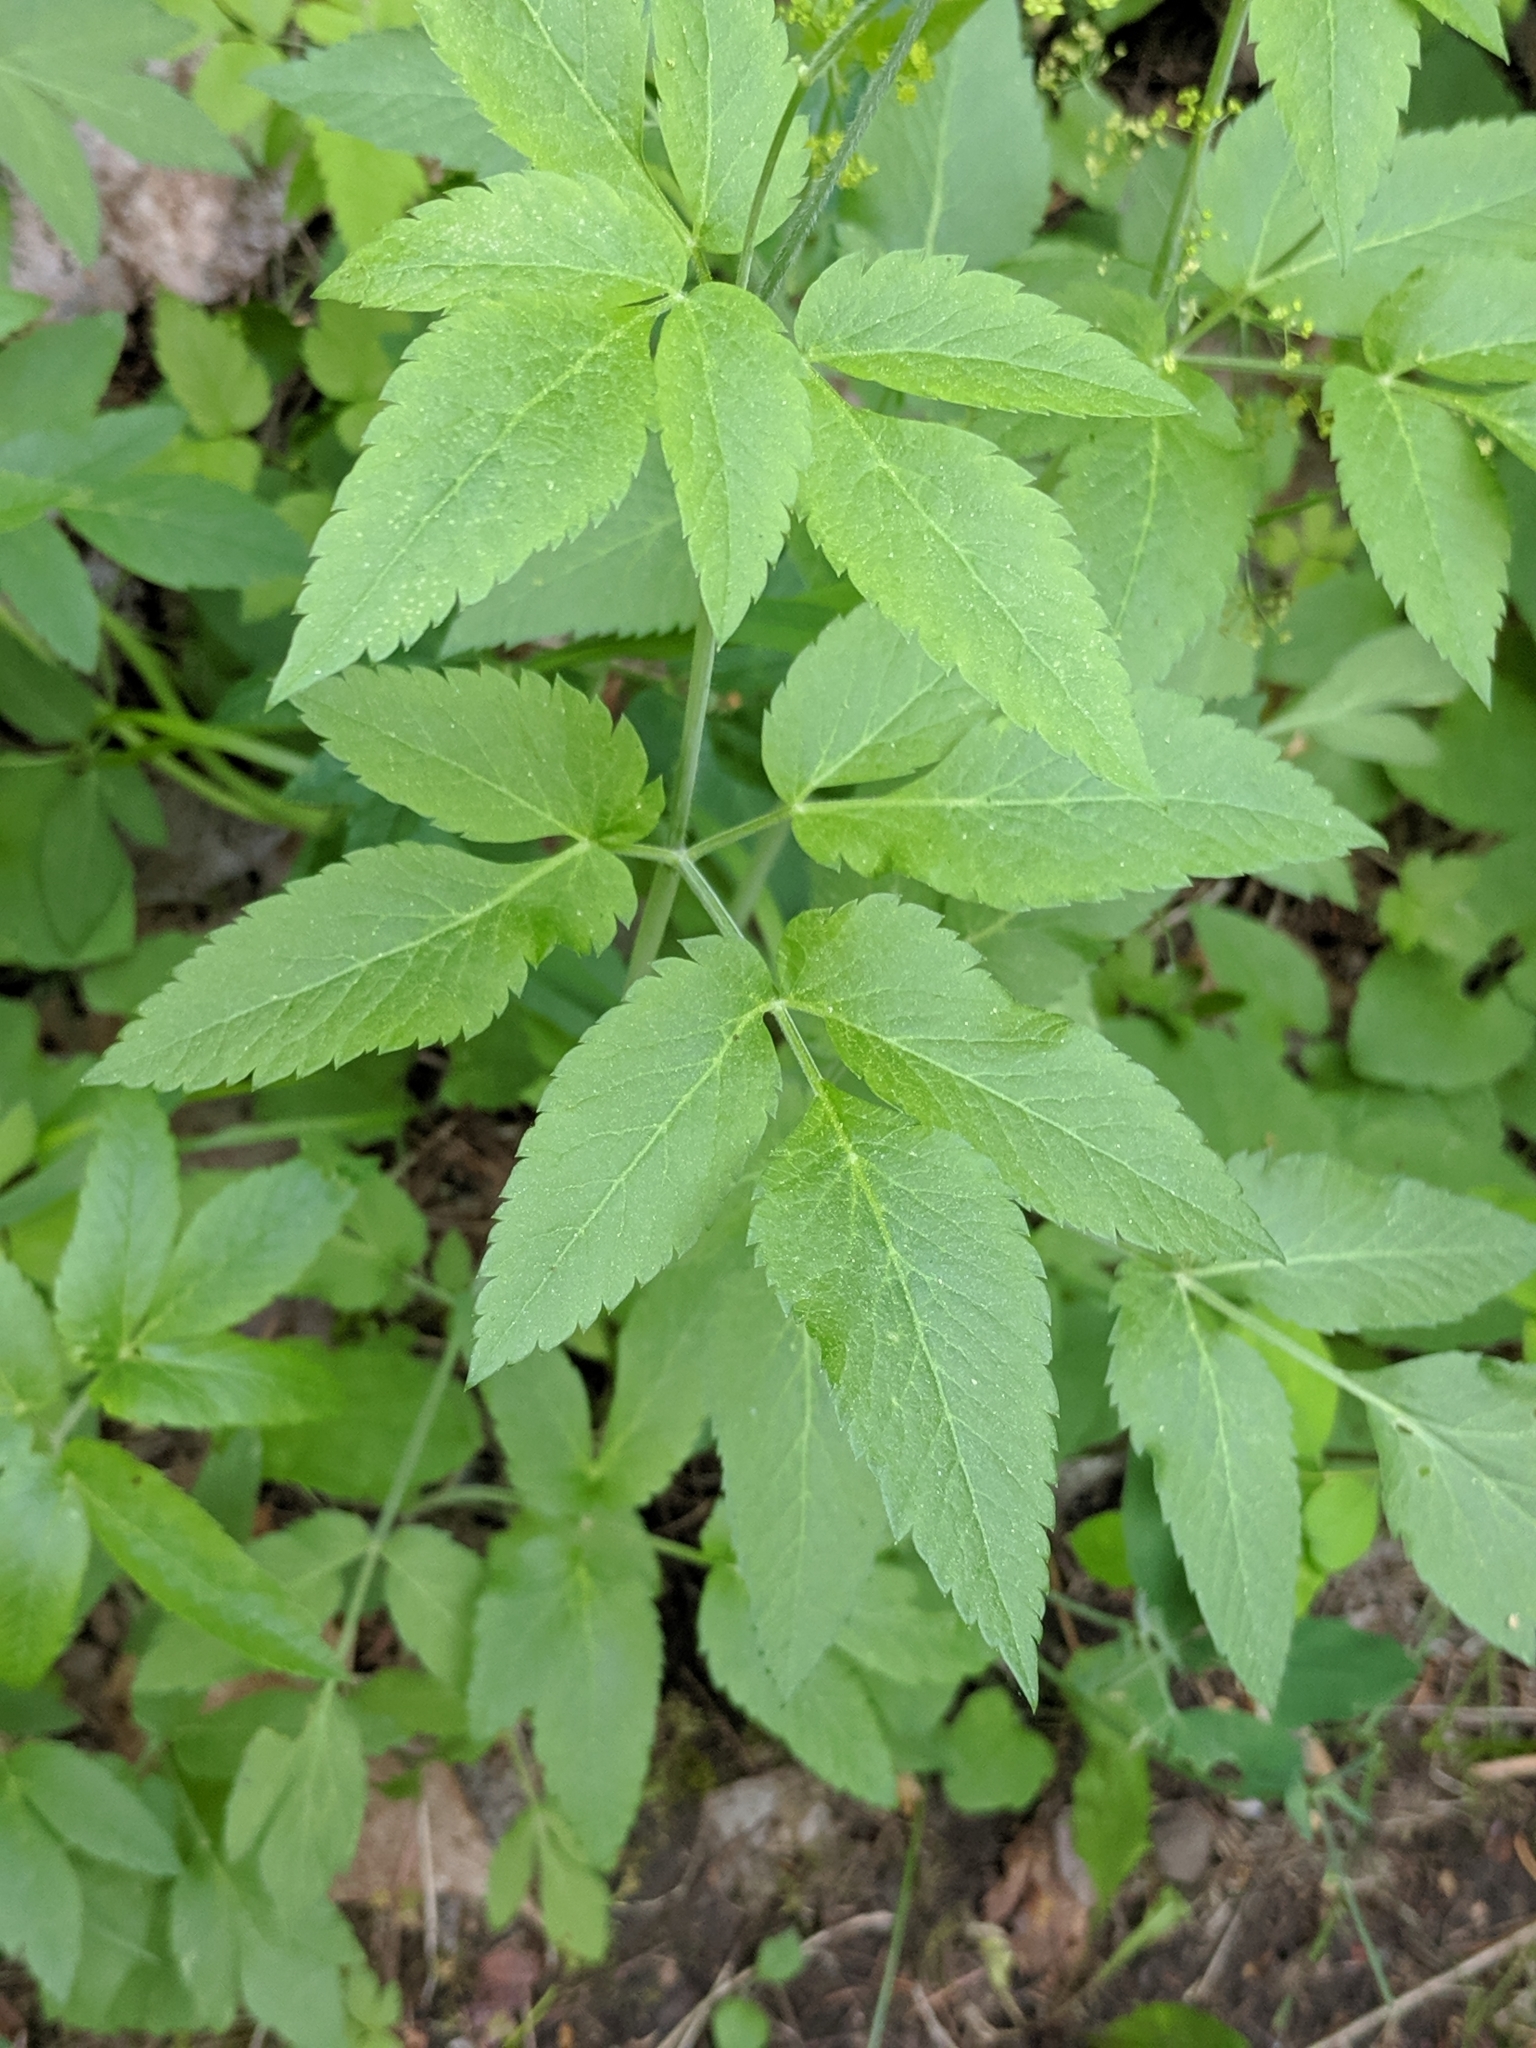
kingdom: Plantae
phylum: Tracheophyta
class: Magnoliopsida
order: Apiales
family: Apiaceae
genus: Osmorhiza
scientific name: Osmorhiza occidentalis
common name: Western sweet cicely
